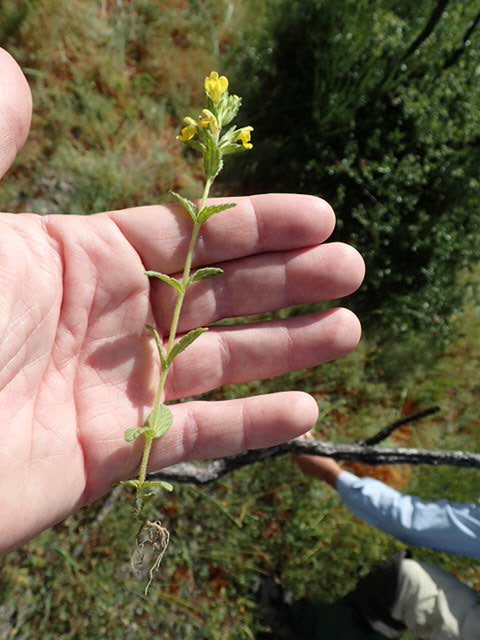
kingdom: Plantae
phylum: Tracheophyta
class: Magnoliopsida
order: Lamiales
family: Orobanchaceae
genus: Bellardia
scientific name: Bellardia viscosa
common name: Sticky parentucellia
